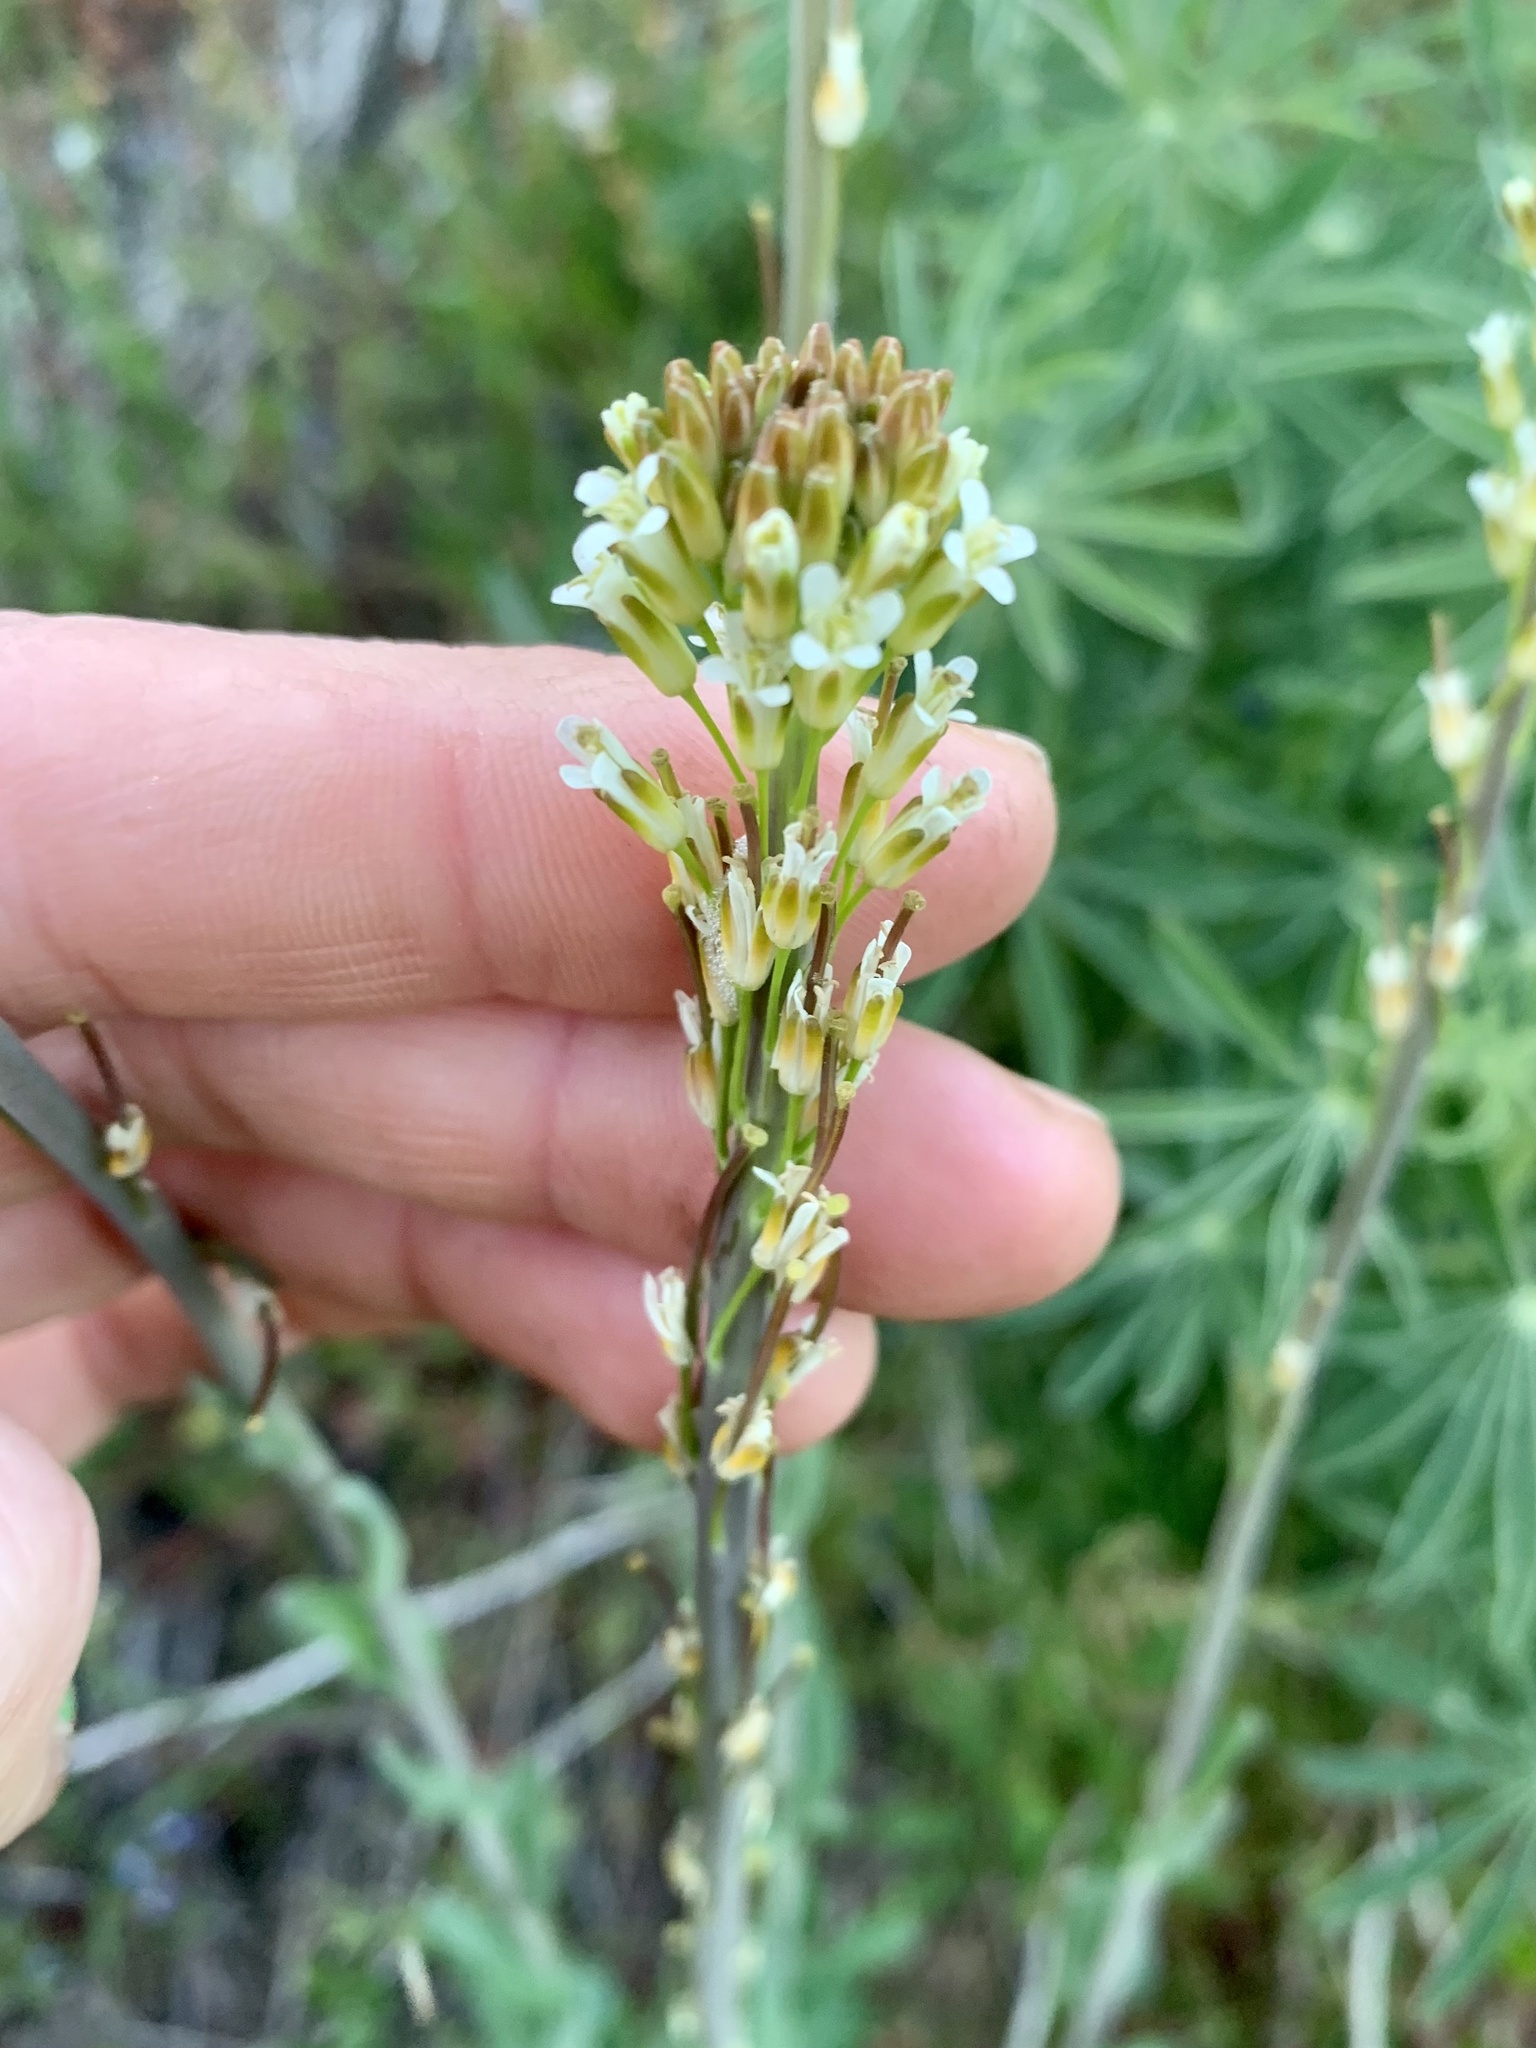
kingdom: Plantae
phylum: Tracheophyta
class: Magnoliopsida
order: Brassicales
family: Brassicaceae
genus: Turritis
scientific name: Turritis glabra
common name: Tower rockcress
